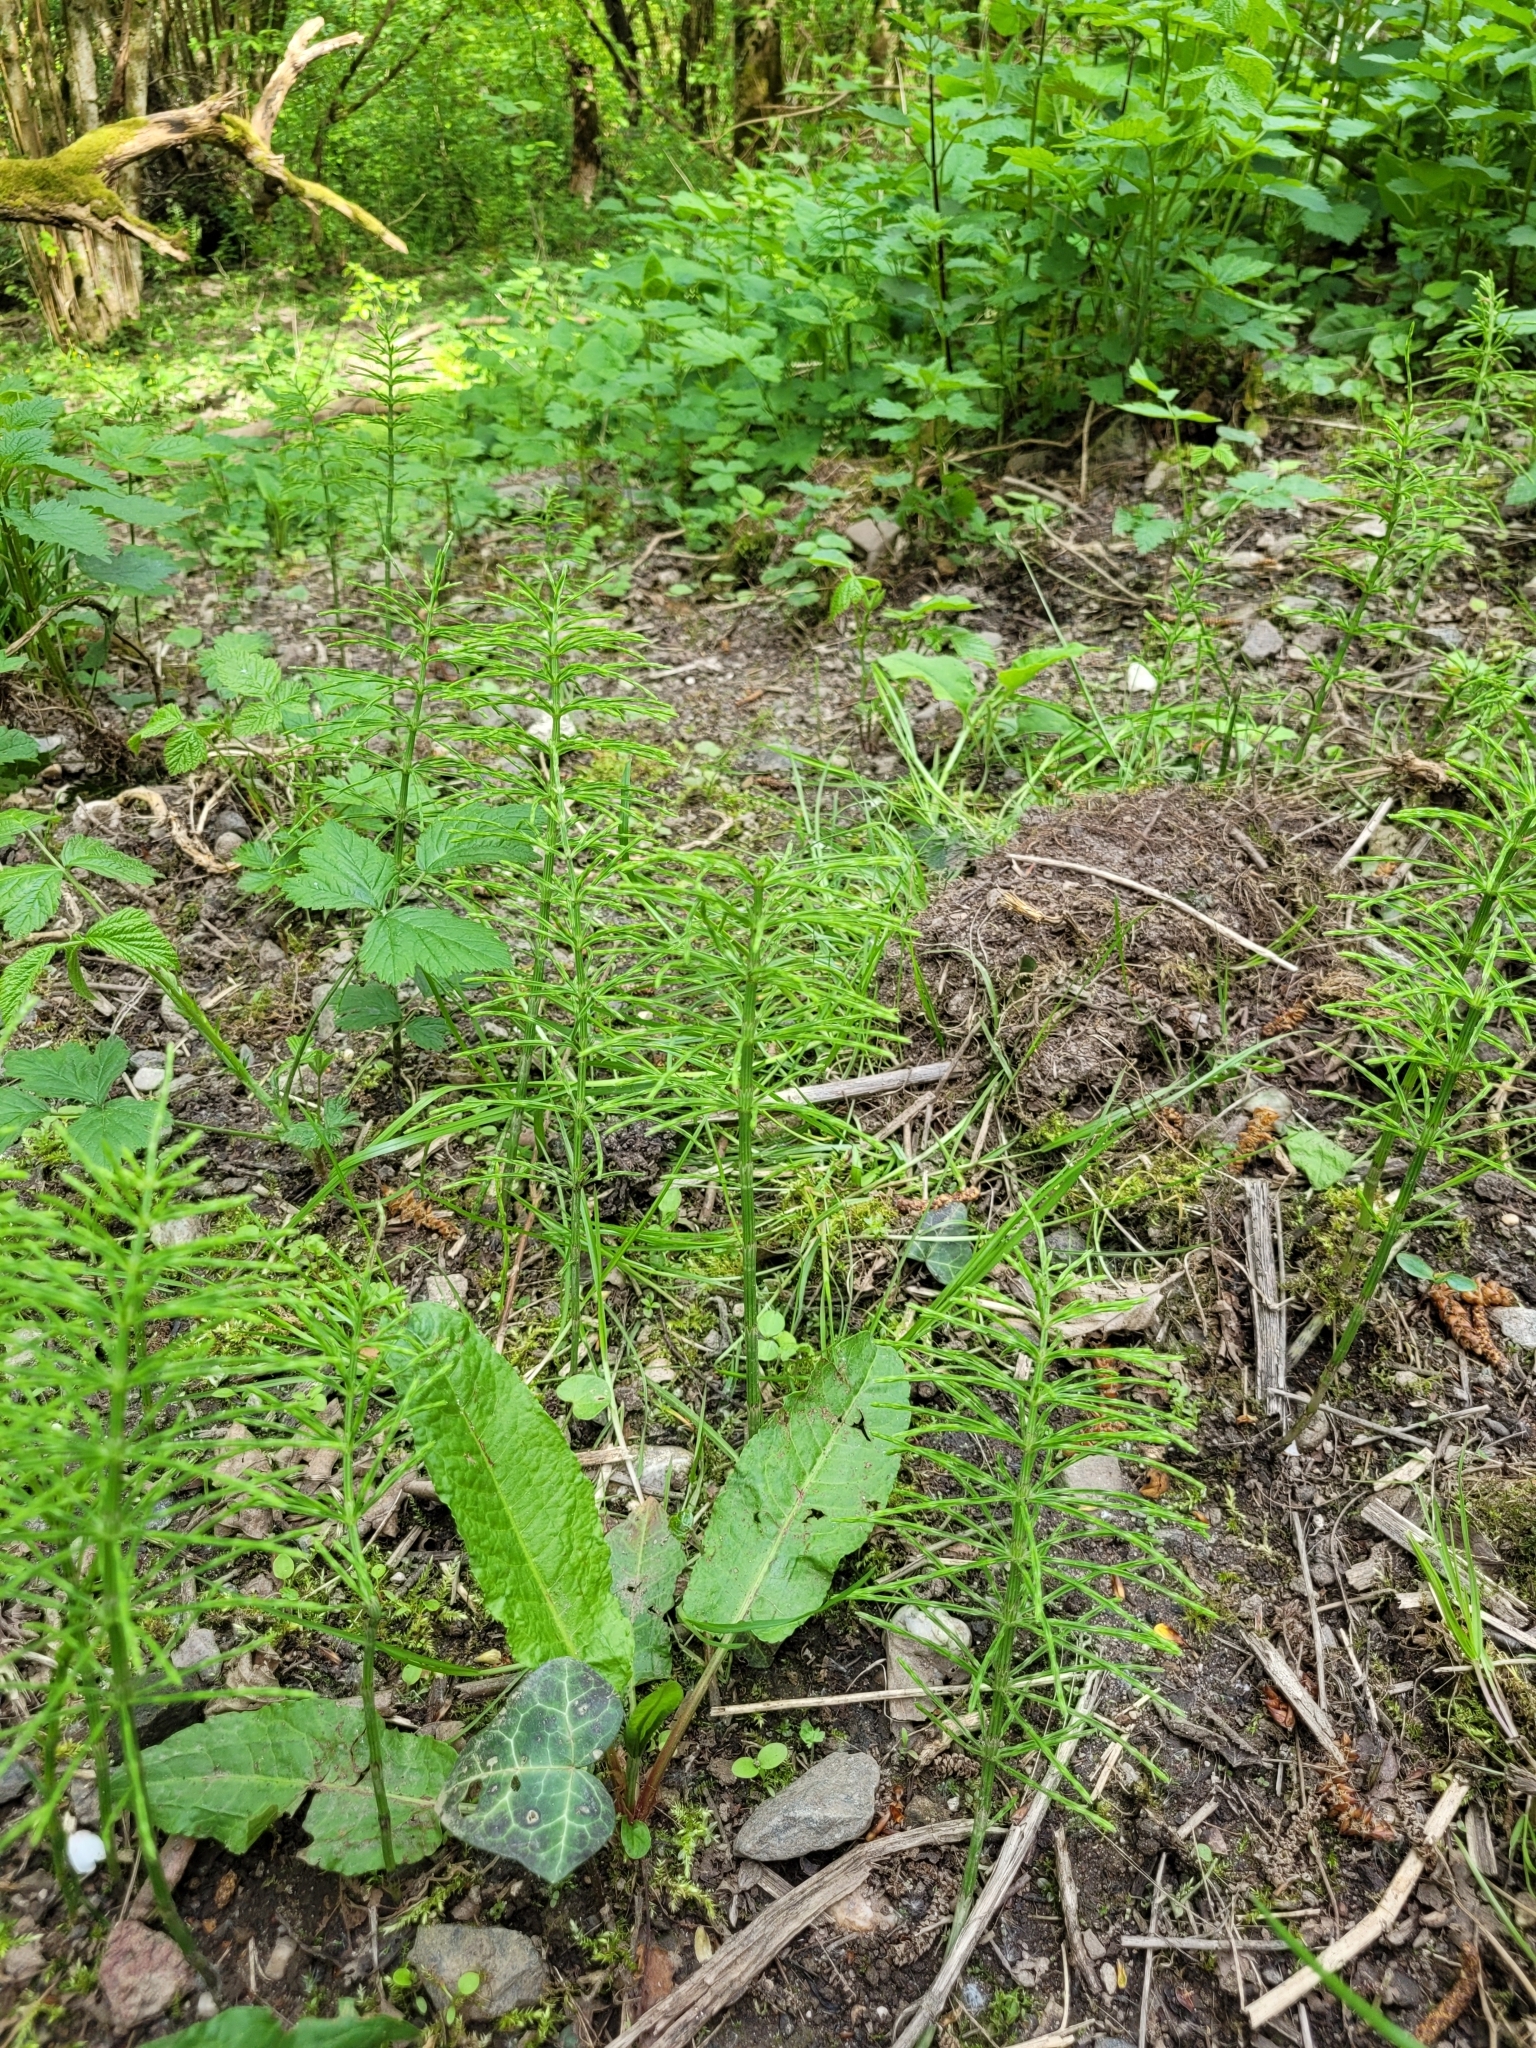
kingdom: Plantae
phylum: Tracheophyta
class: Polypodiopsida
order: Equisetales
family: Equisetaceae
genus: Equisetum
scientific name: Equisetum arvense
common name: Field horsetail
